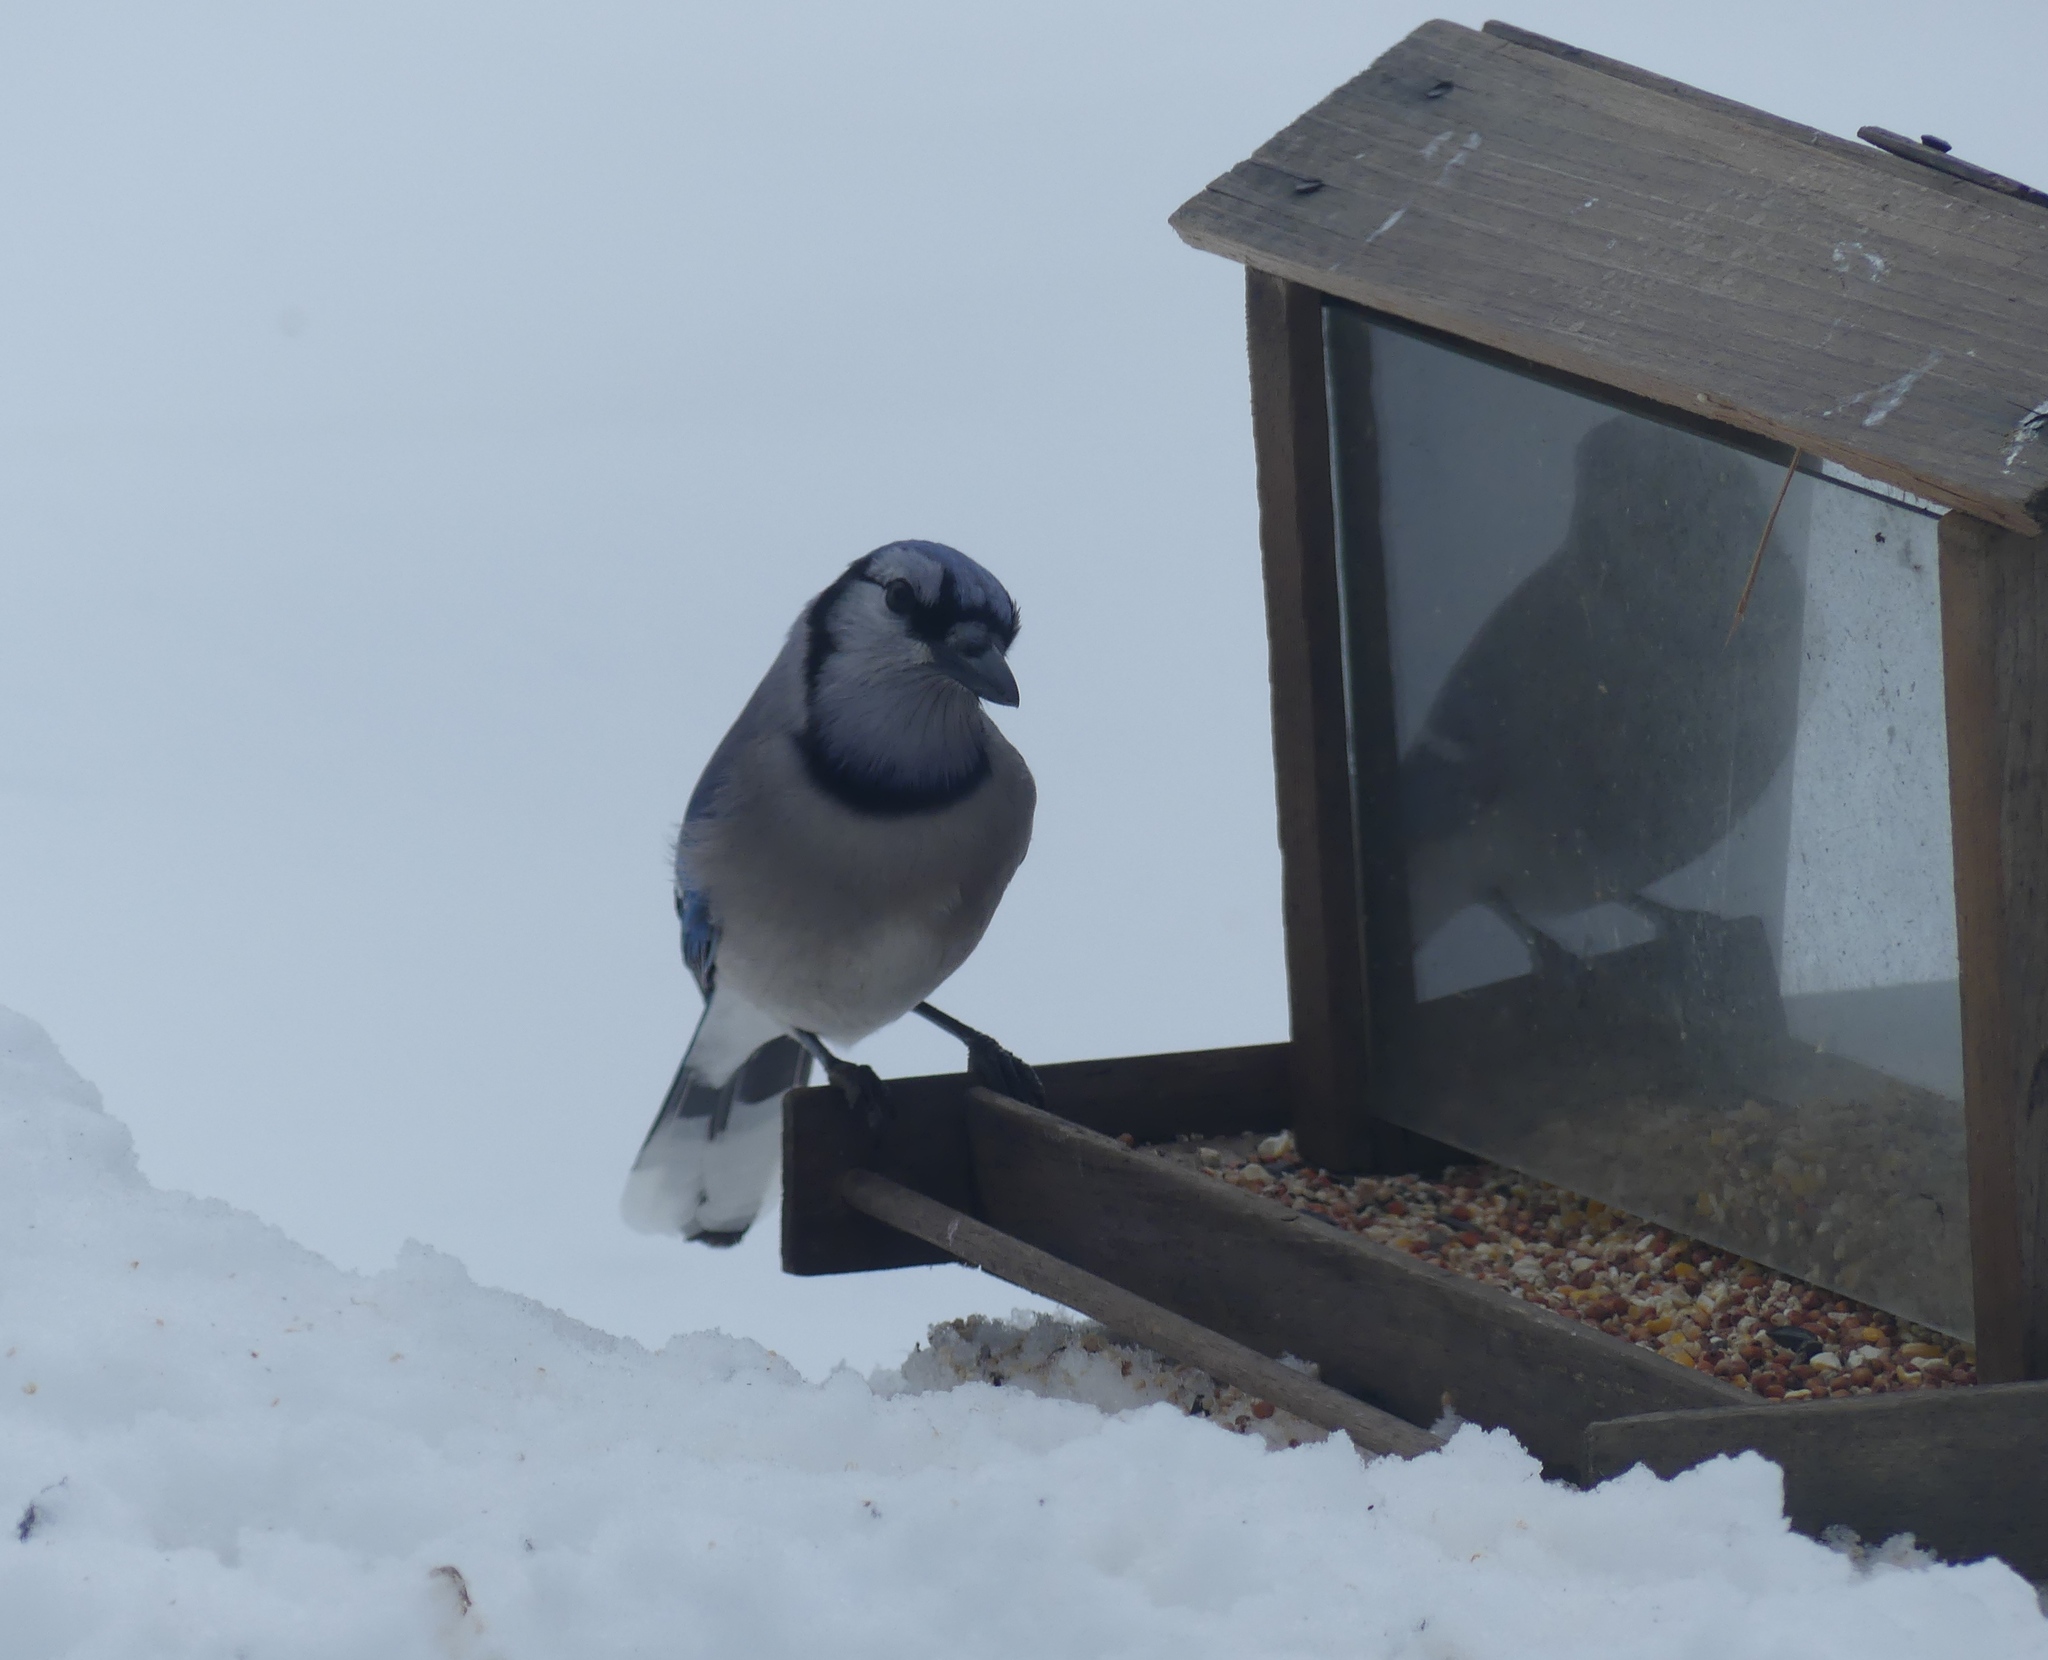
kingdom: Animalia
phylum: Chordata
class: Aves
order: Passeriformes
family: Corvidae
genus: Cyanocitta
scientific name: Cyanocitta cristata
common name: Blue jay
